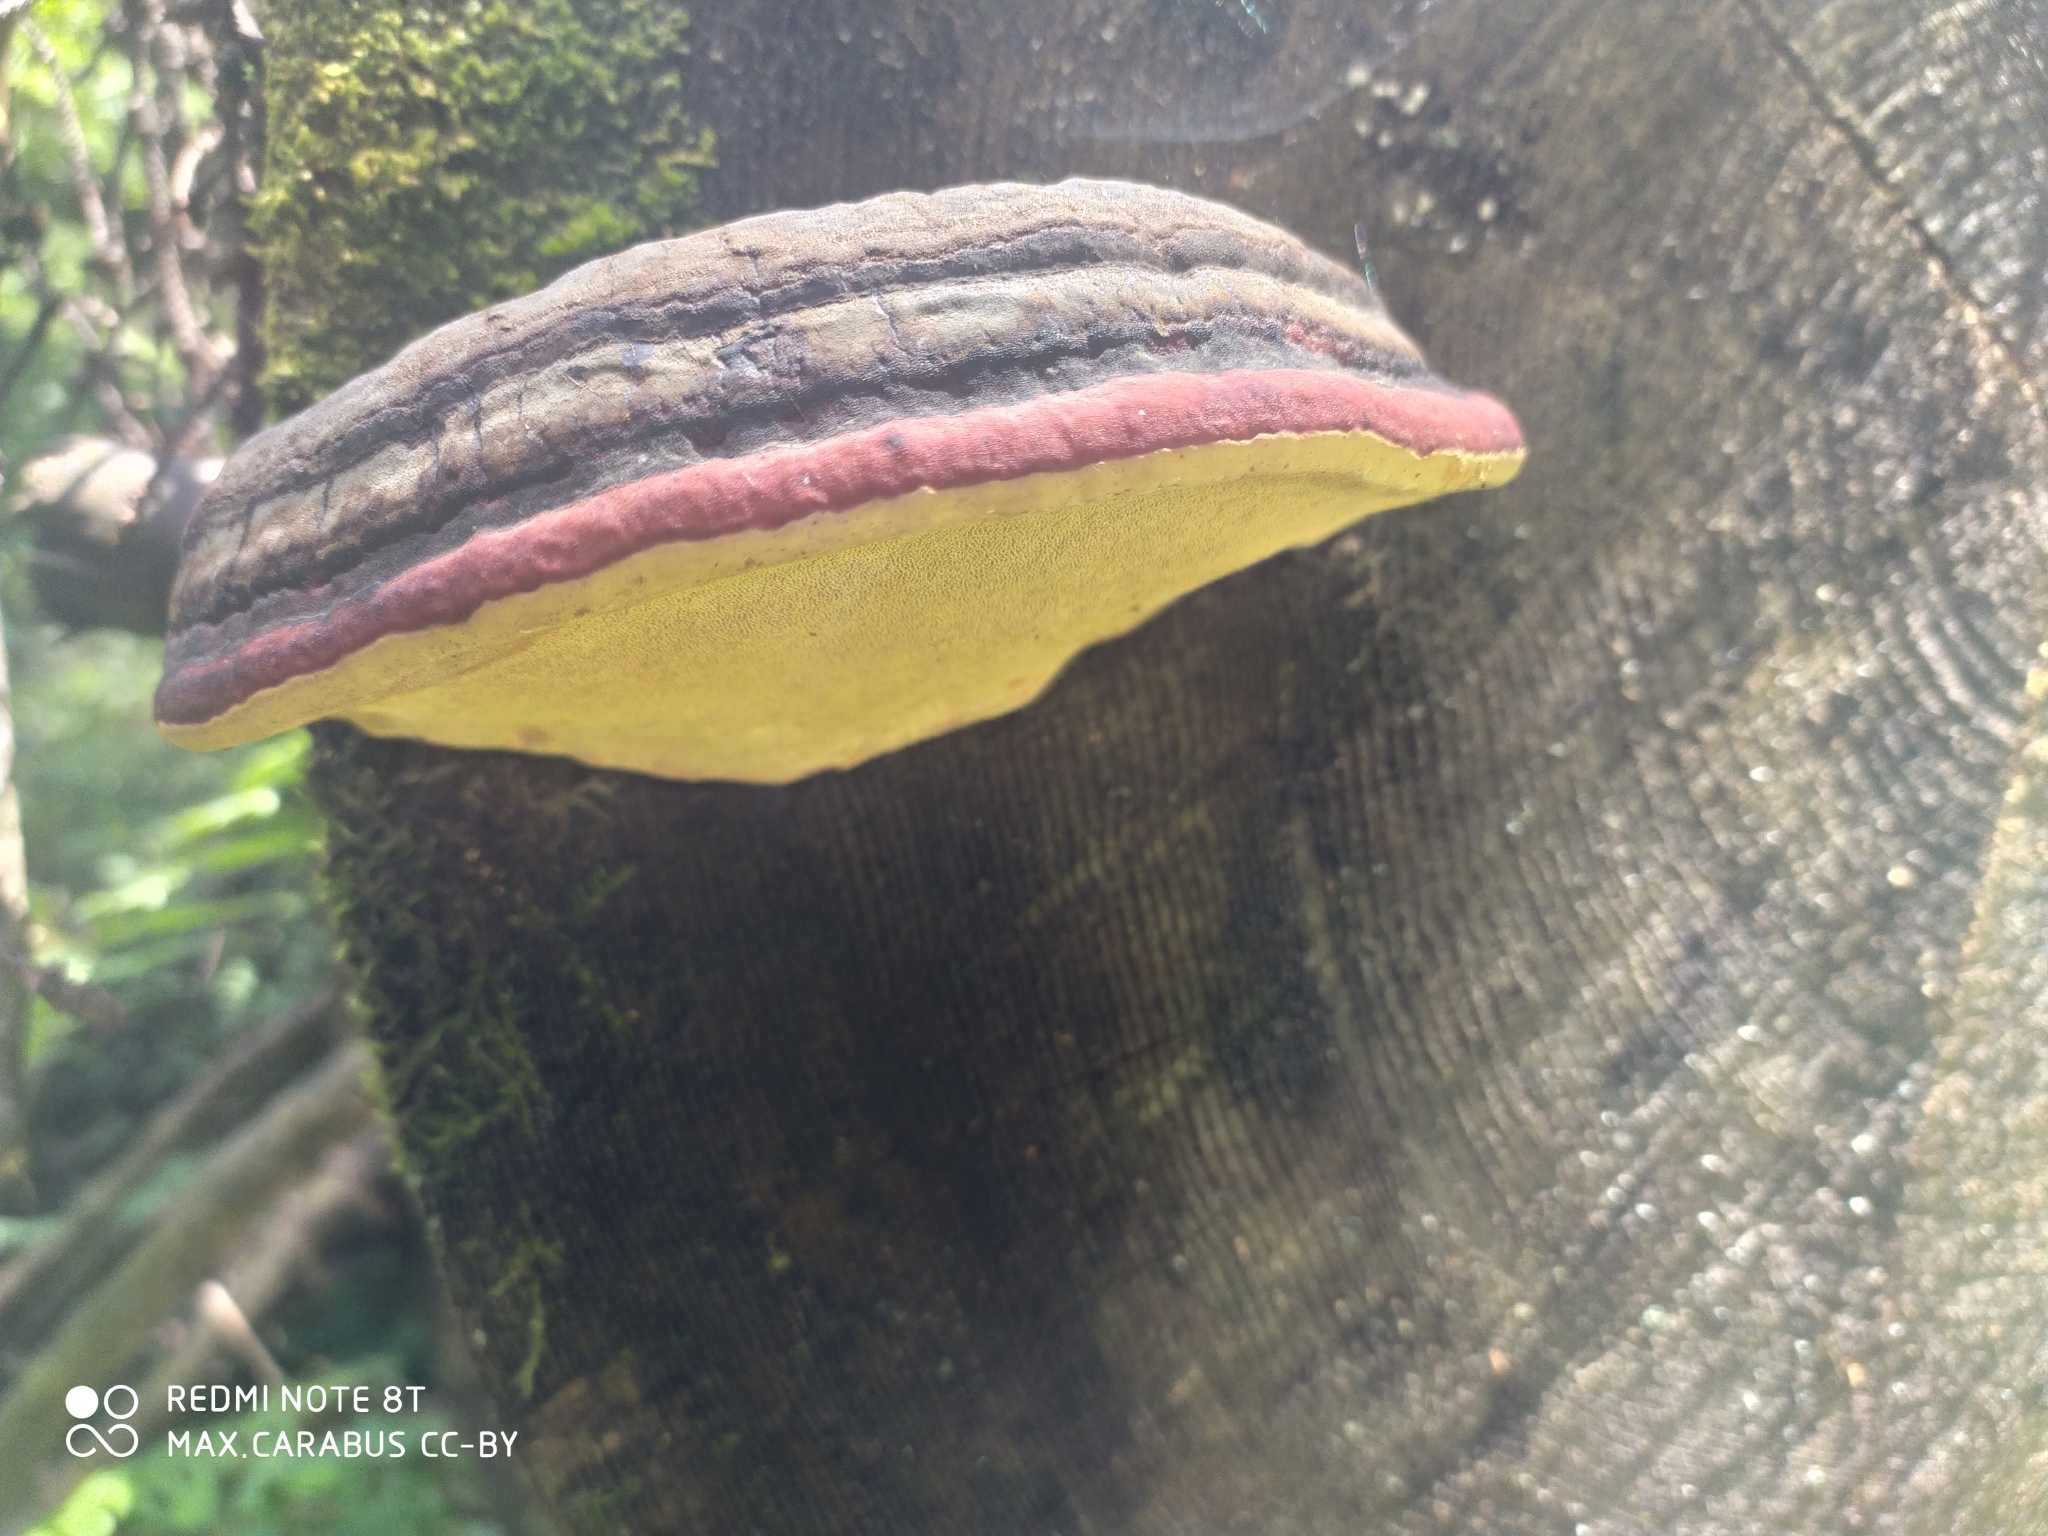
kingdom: Fungi
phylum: Basidiomycota
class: Agaricomycetes
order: Polyporales
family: Fomitopsidaceae
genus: Fomitopsis
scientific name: Fomitopsis pinicola
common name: Red-belted bracket
